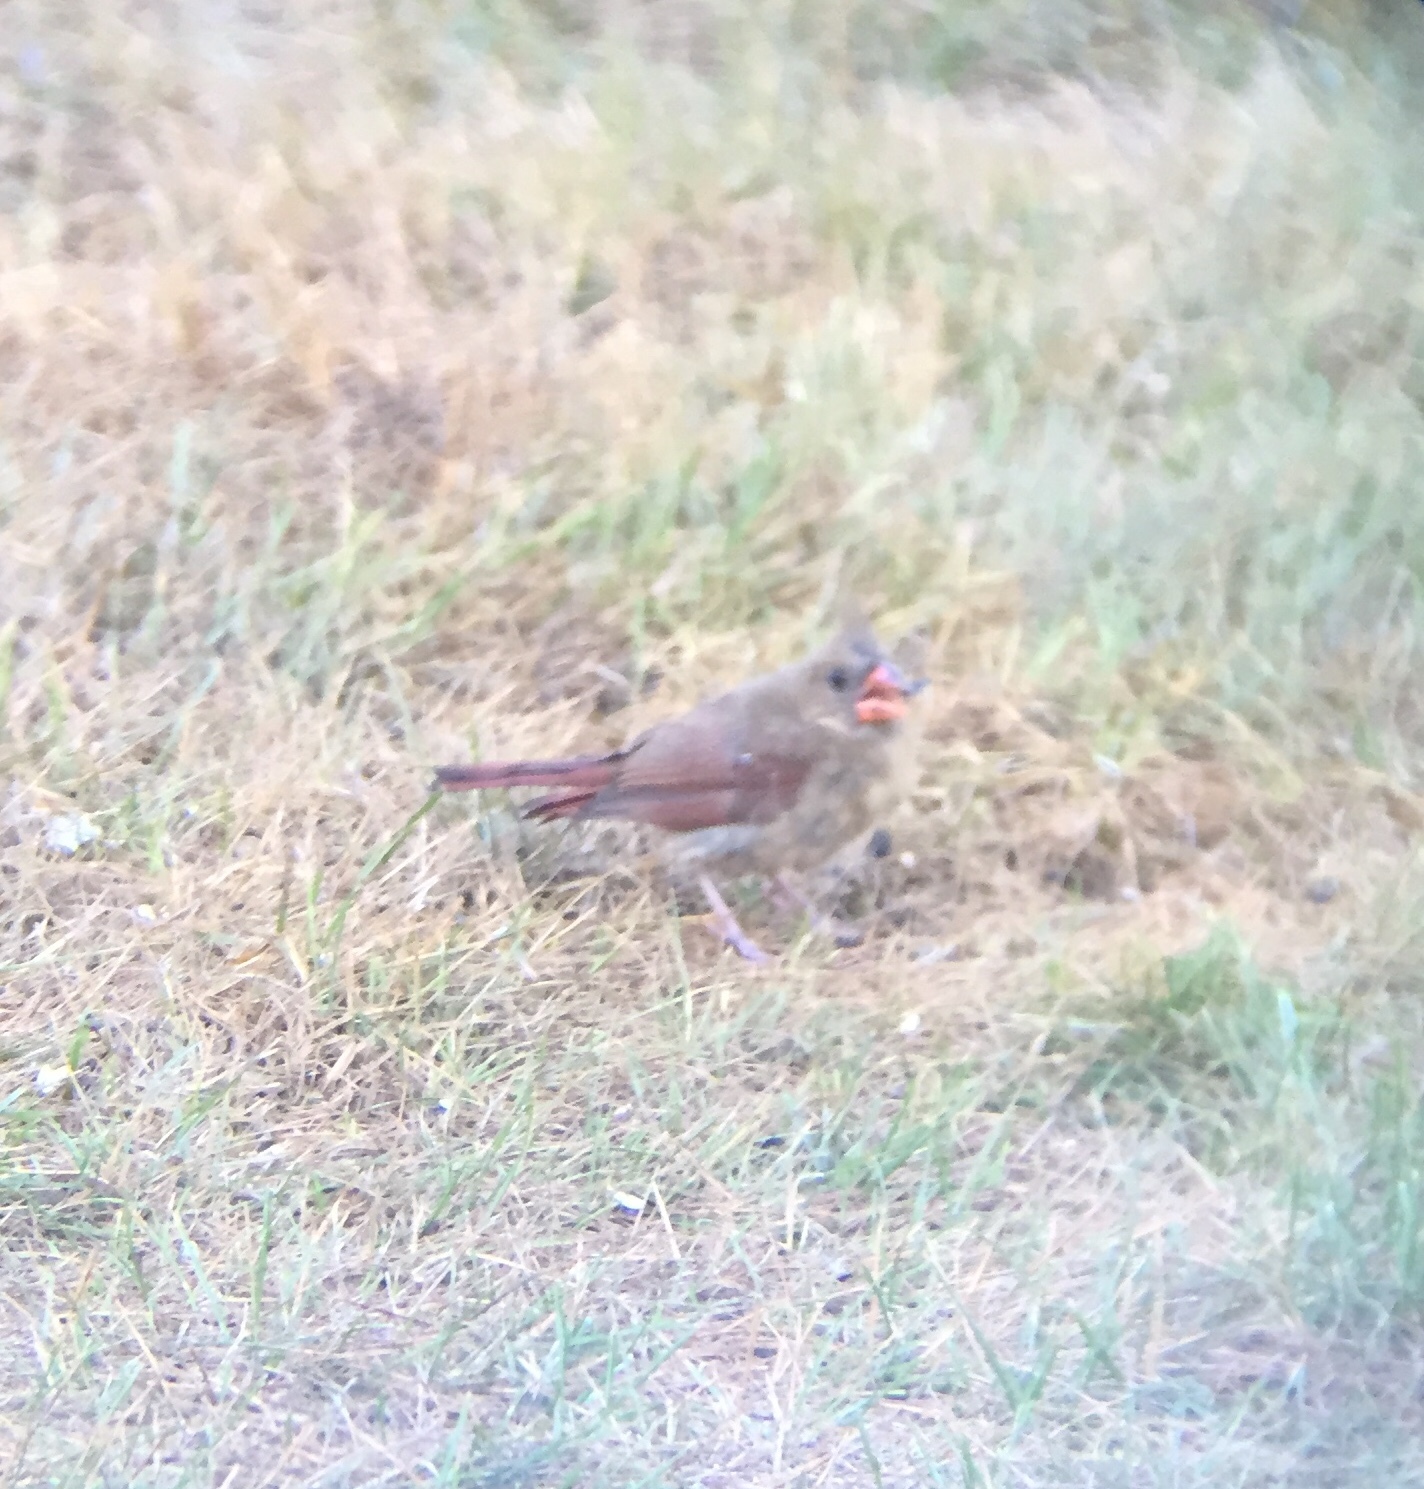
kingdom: Animalia
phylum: Chordata
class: Aves
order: Passeriformes
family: Cardinalidae
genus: Cardinalis
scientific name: Cardinalis cardinalis
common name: Northern cardinal
